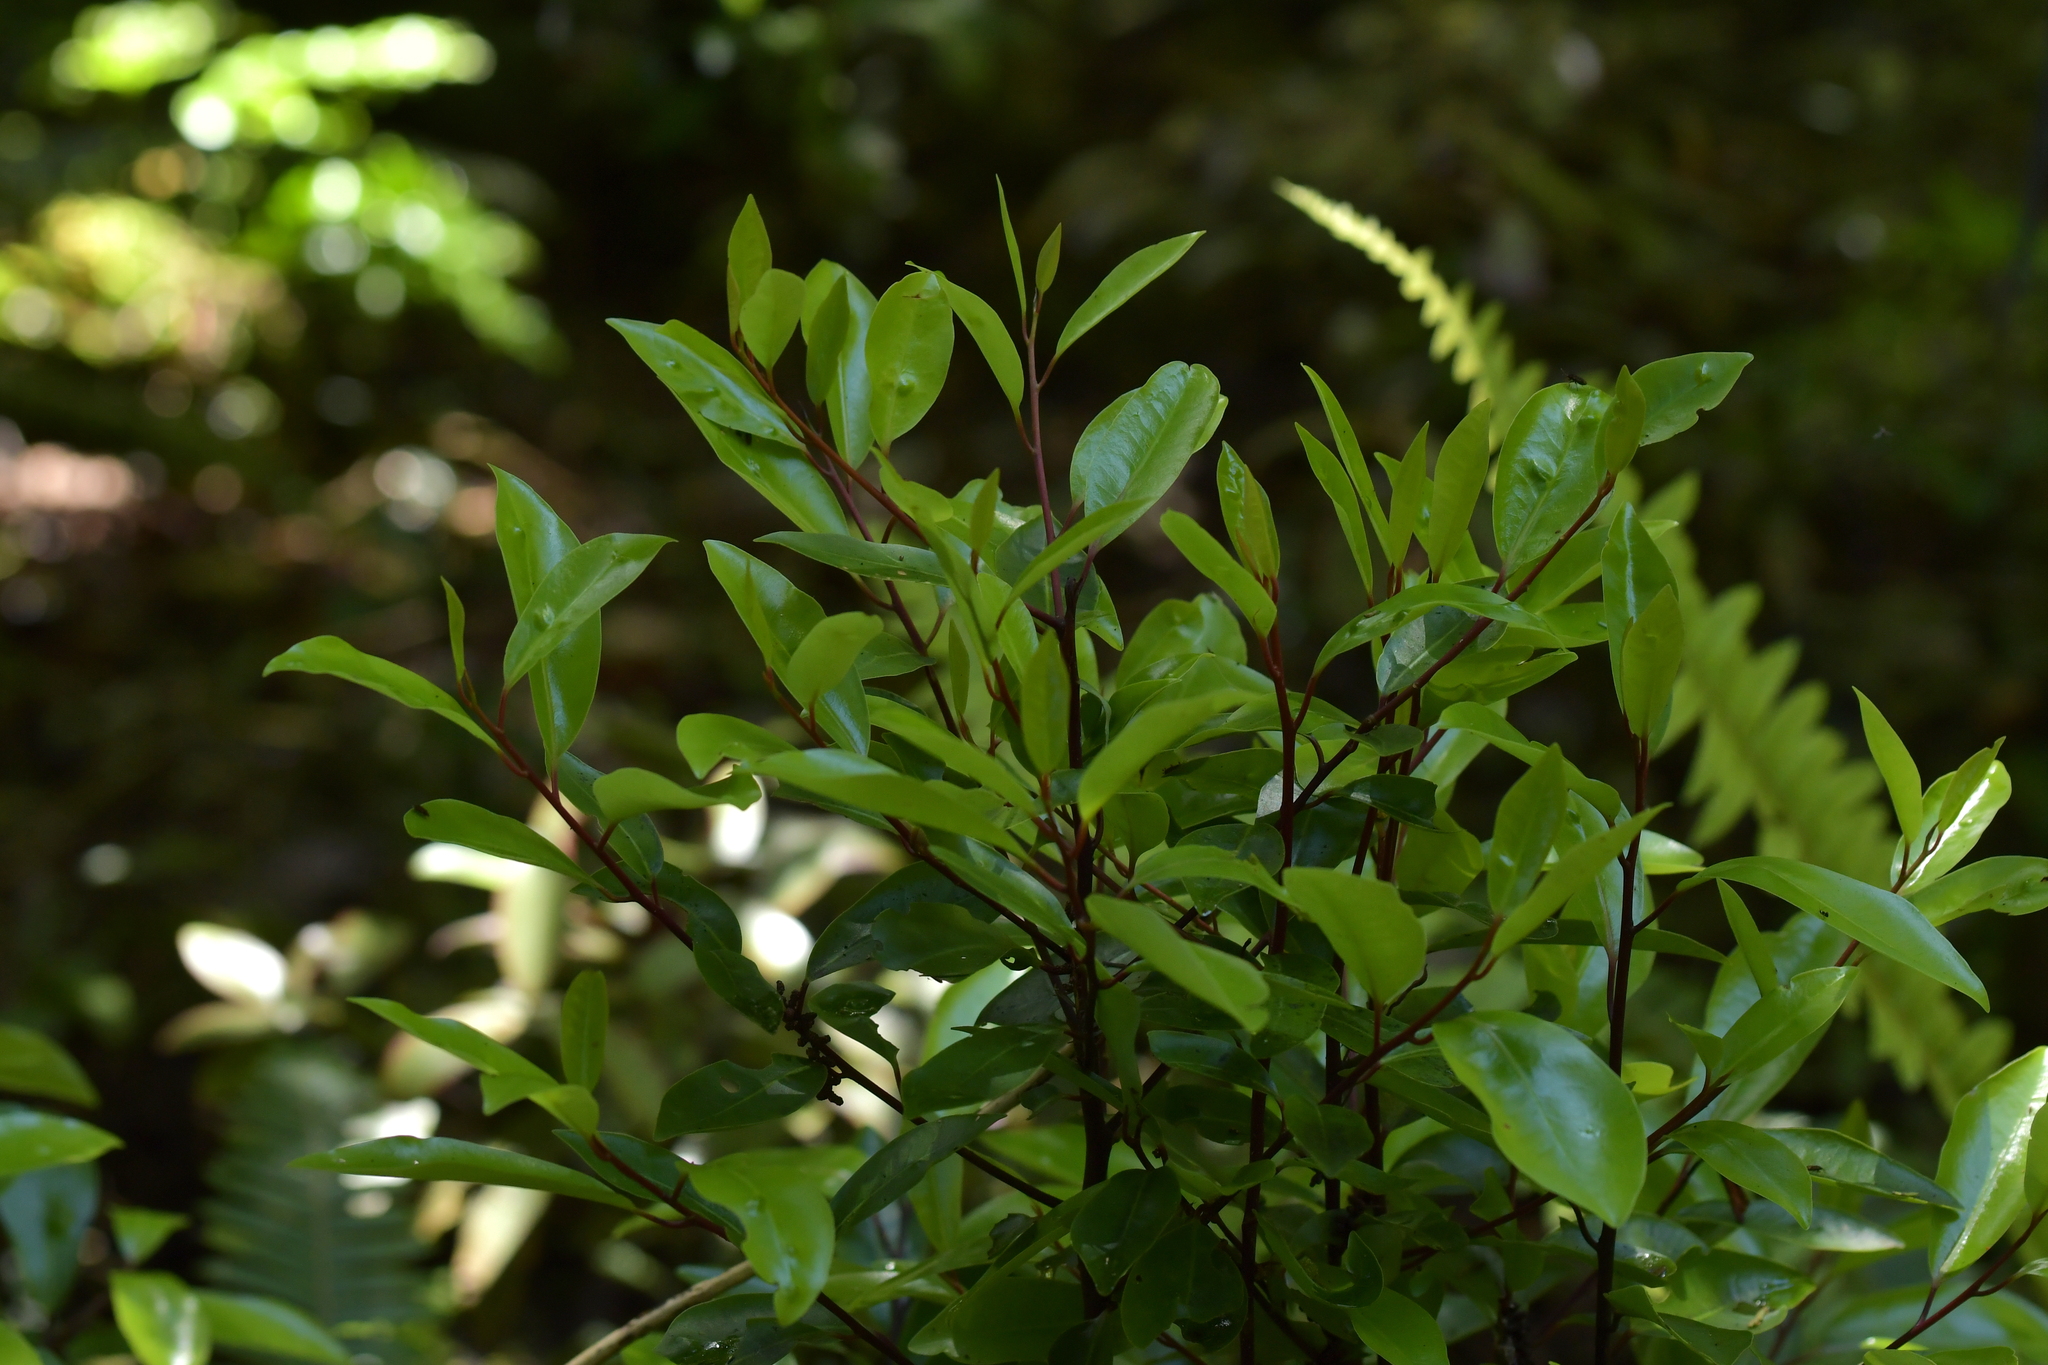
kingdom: Plantae
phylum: Tracheophyta
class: Magnoliopsida
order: Canellales
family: Winteraceae
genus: Pseudowintera
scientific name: Pseudowintera axillaris
